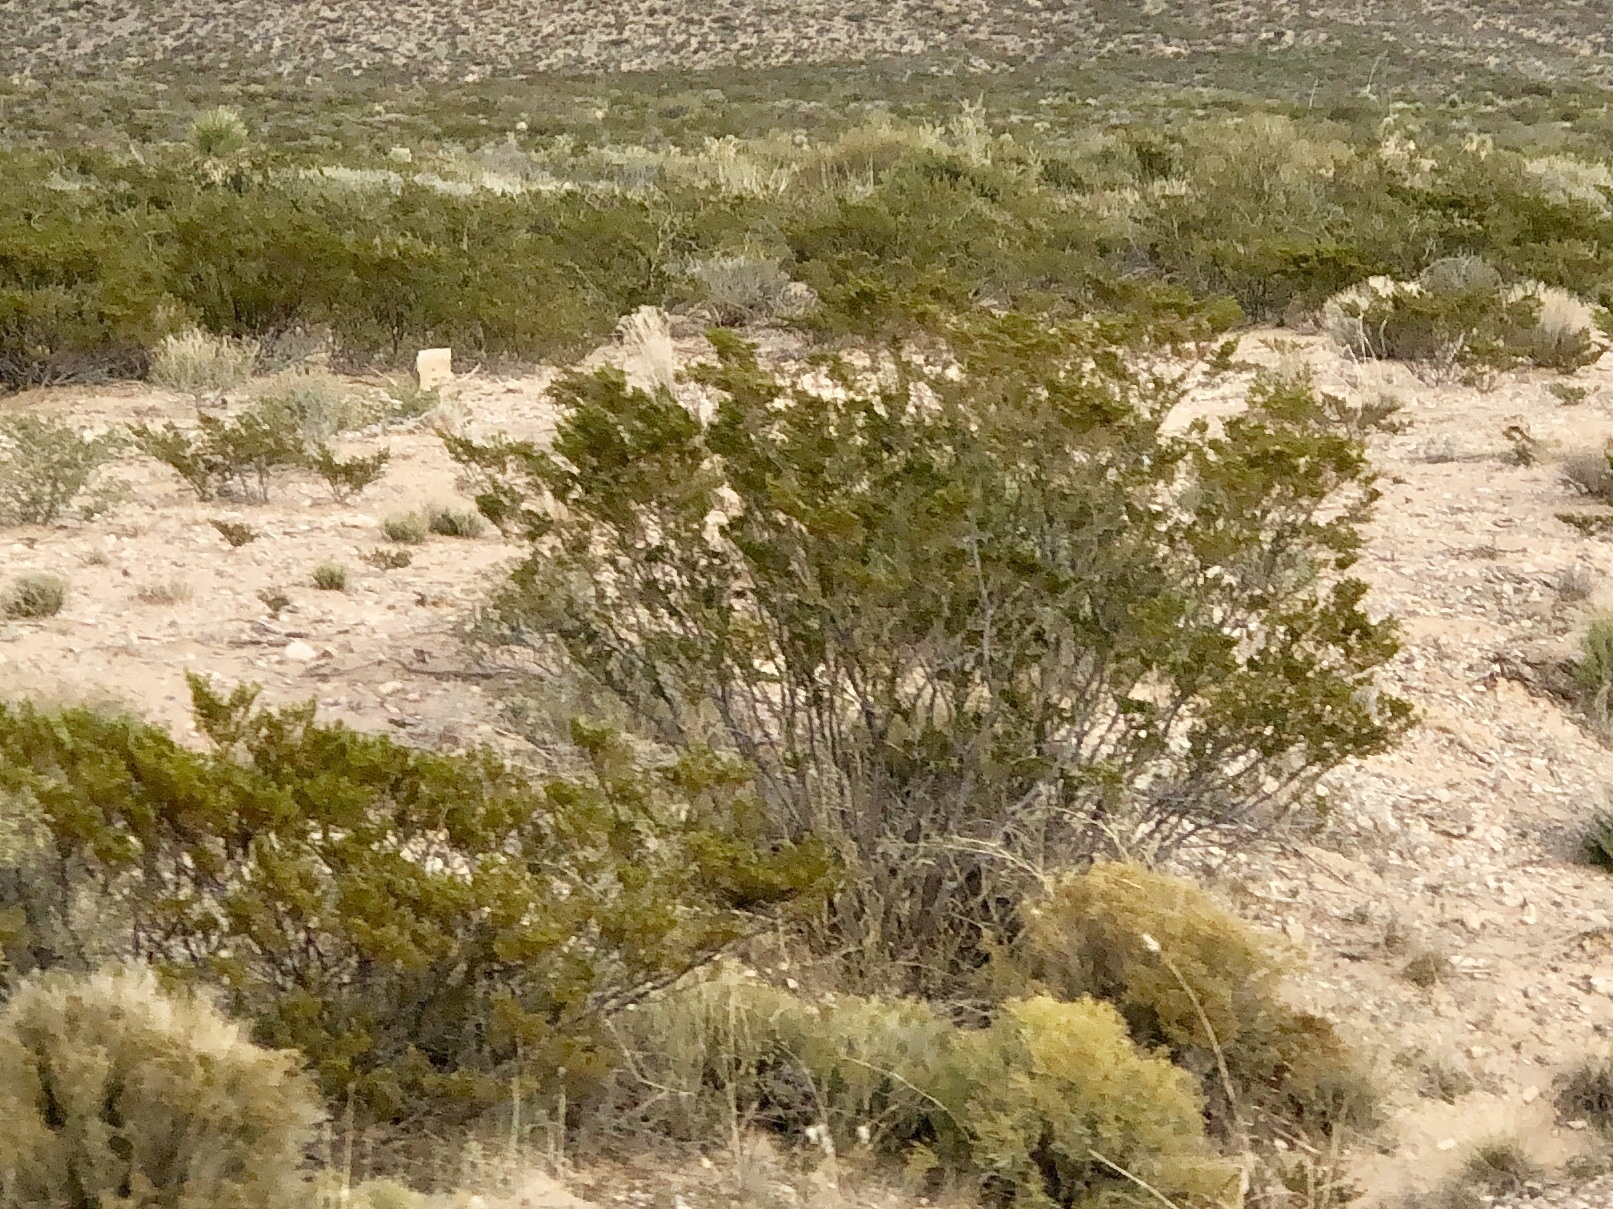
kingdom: Plantae
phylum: Tracheophyta
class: Magnoliopsida
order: Zygophyllales
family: Zygophyllaceae
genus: Larrea
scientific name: Larrea tridentata
